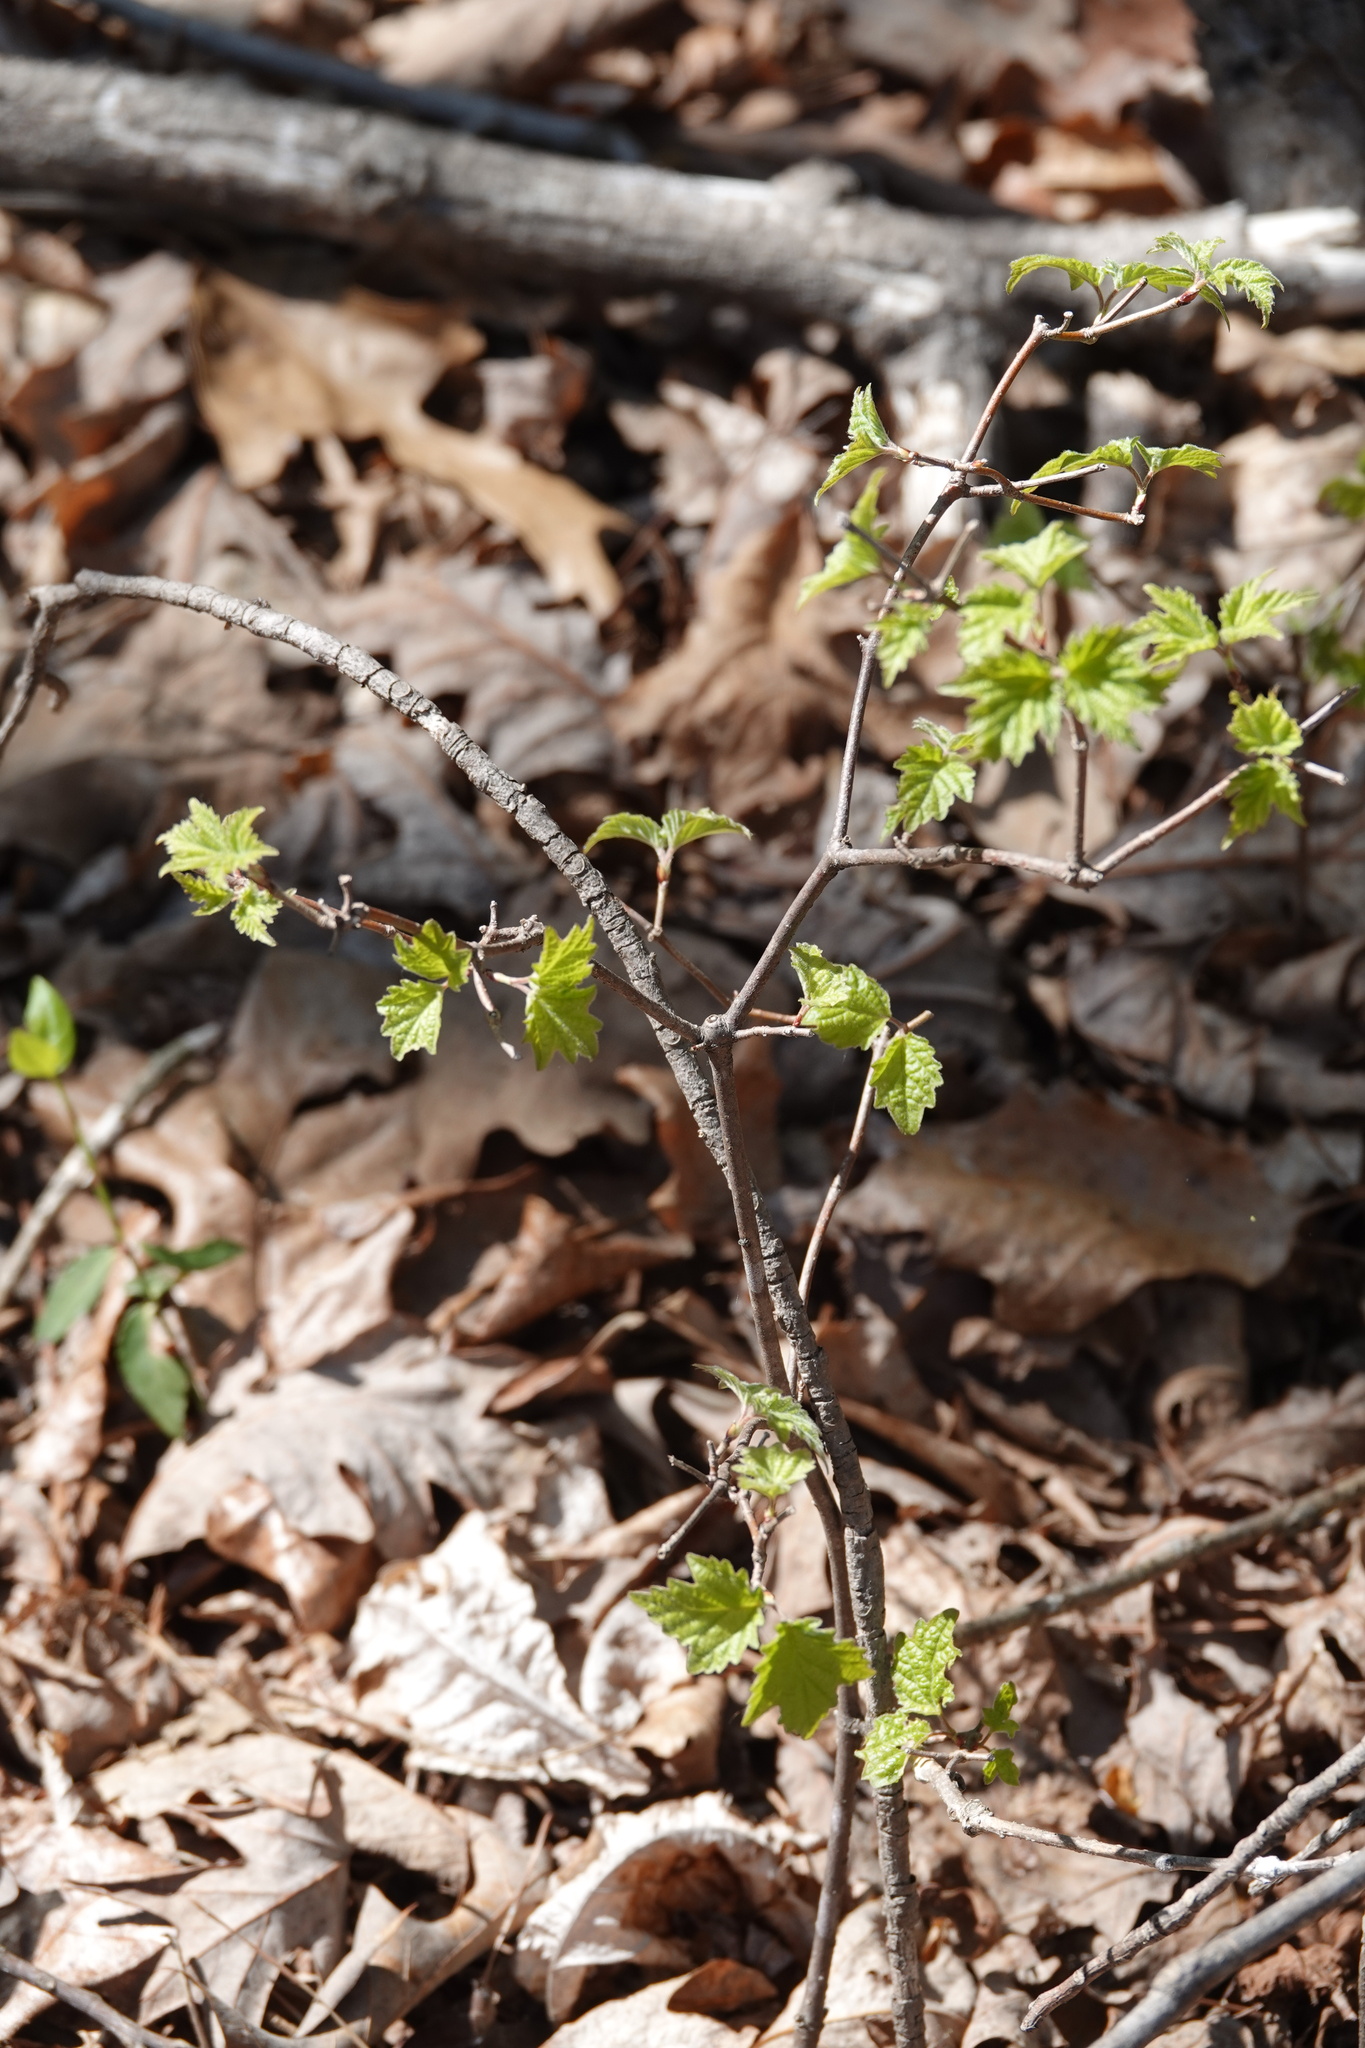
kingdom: Plantae
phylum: Tracheophyta
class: Magnoliopsida
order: Dipsacales
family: Viburnaceae
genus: Viburnum
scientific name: Viburnum acerifolium
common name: Dockmackie
